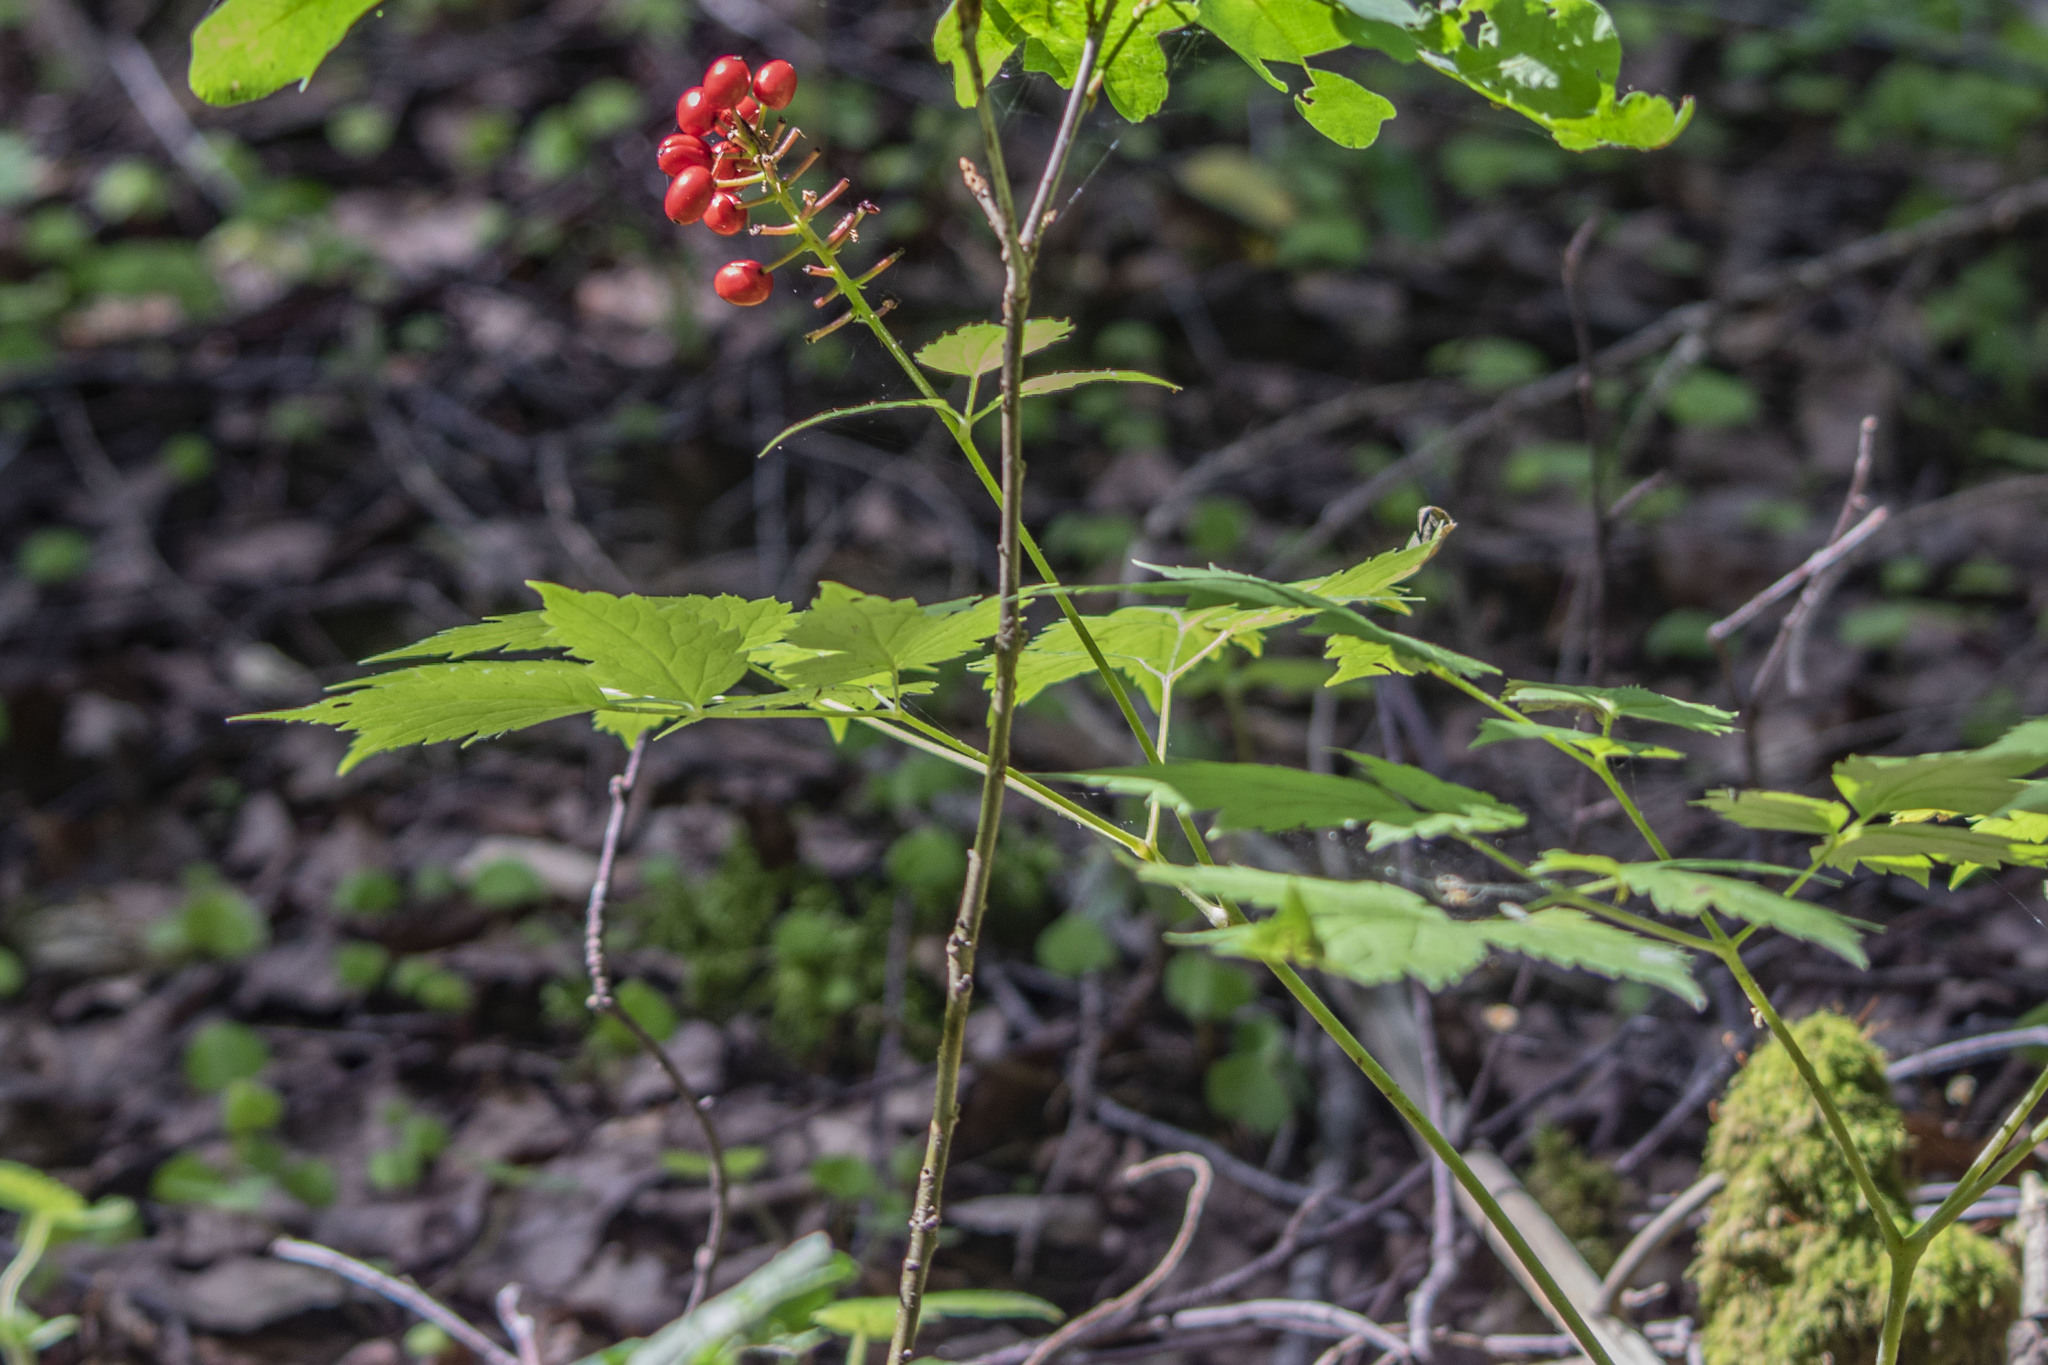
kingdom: Plantae
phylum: Tracheophyta
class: Magnoliopsida
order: Ranunculales
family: Ranunculaceae
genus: Actaea
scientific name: Actaea erythrocarpa
